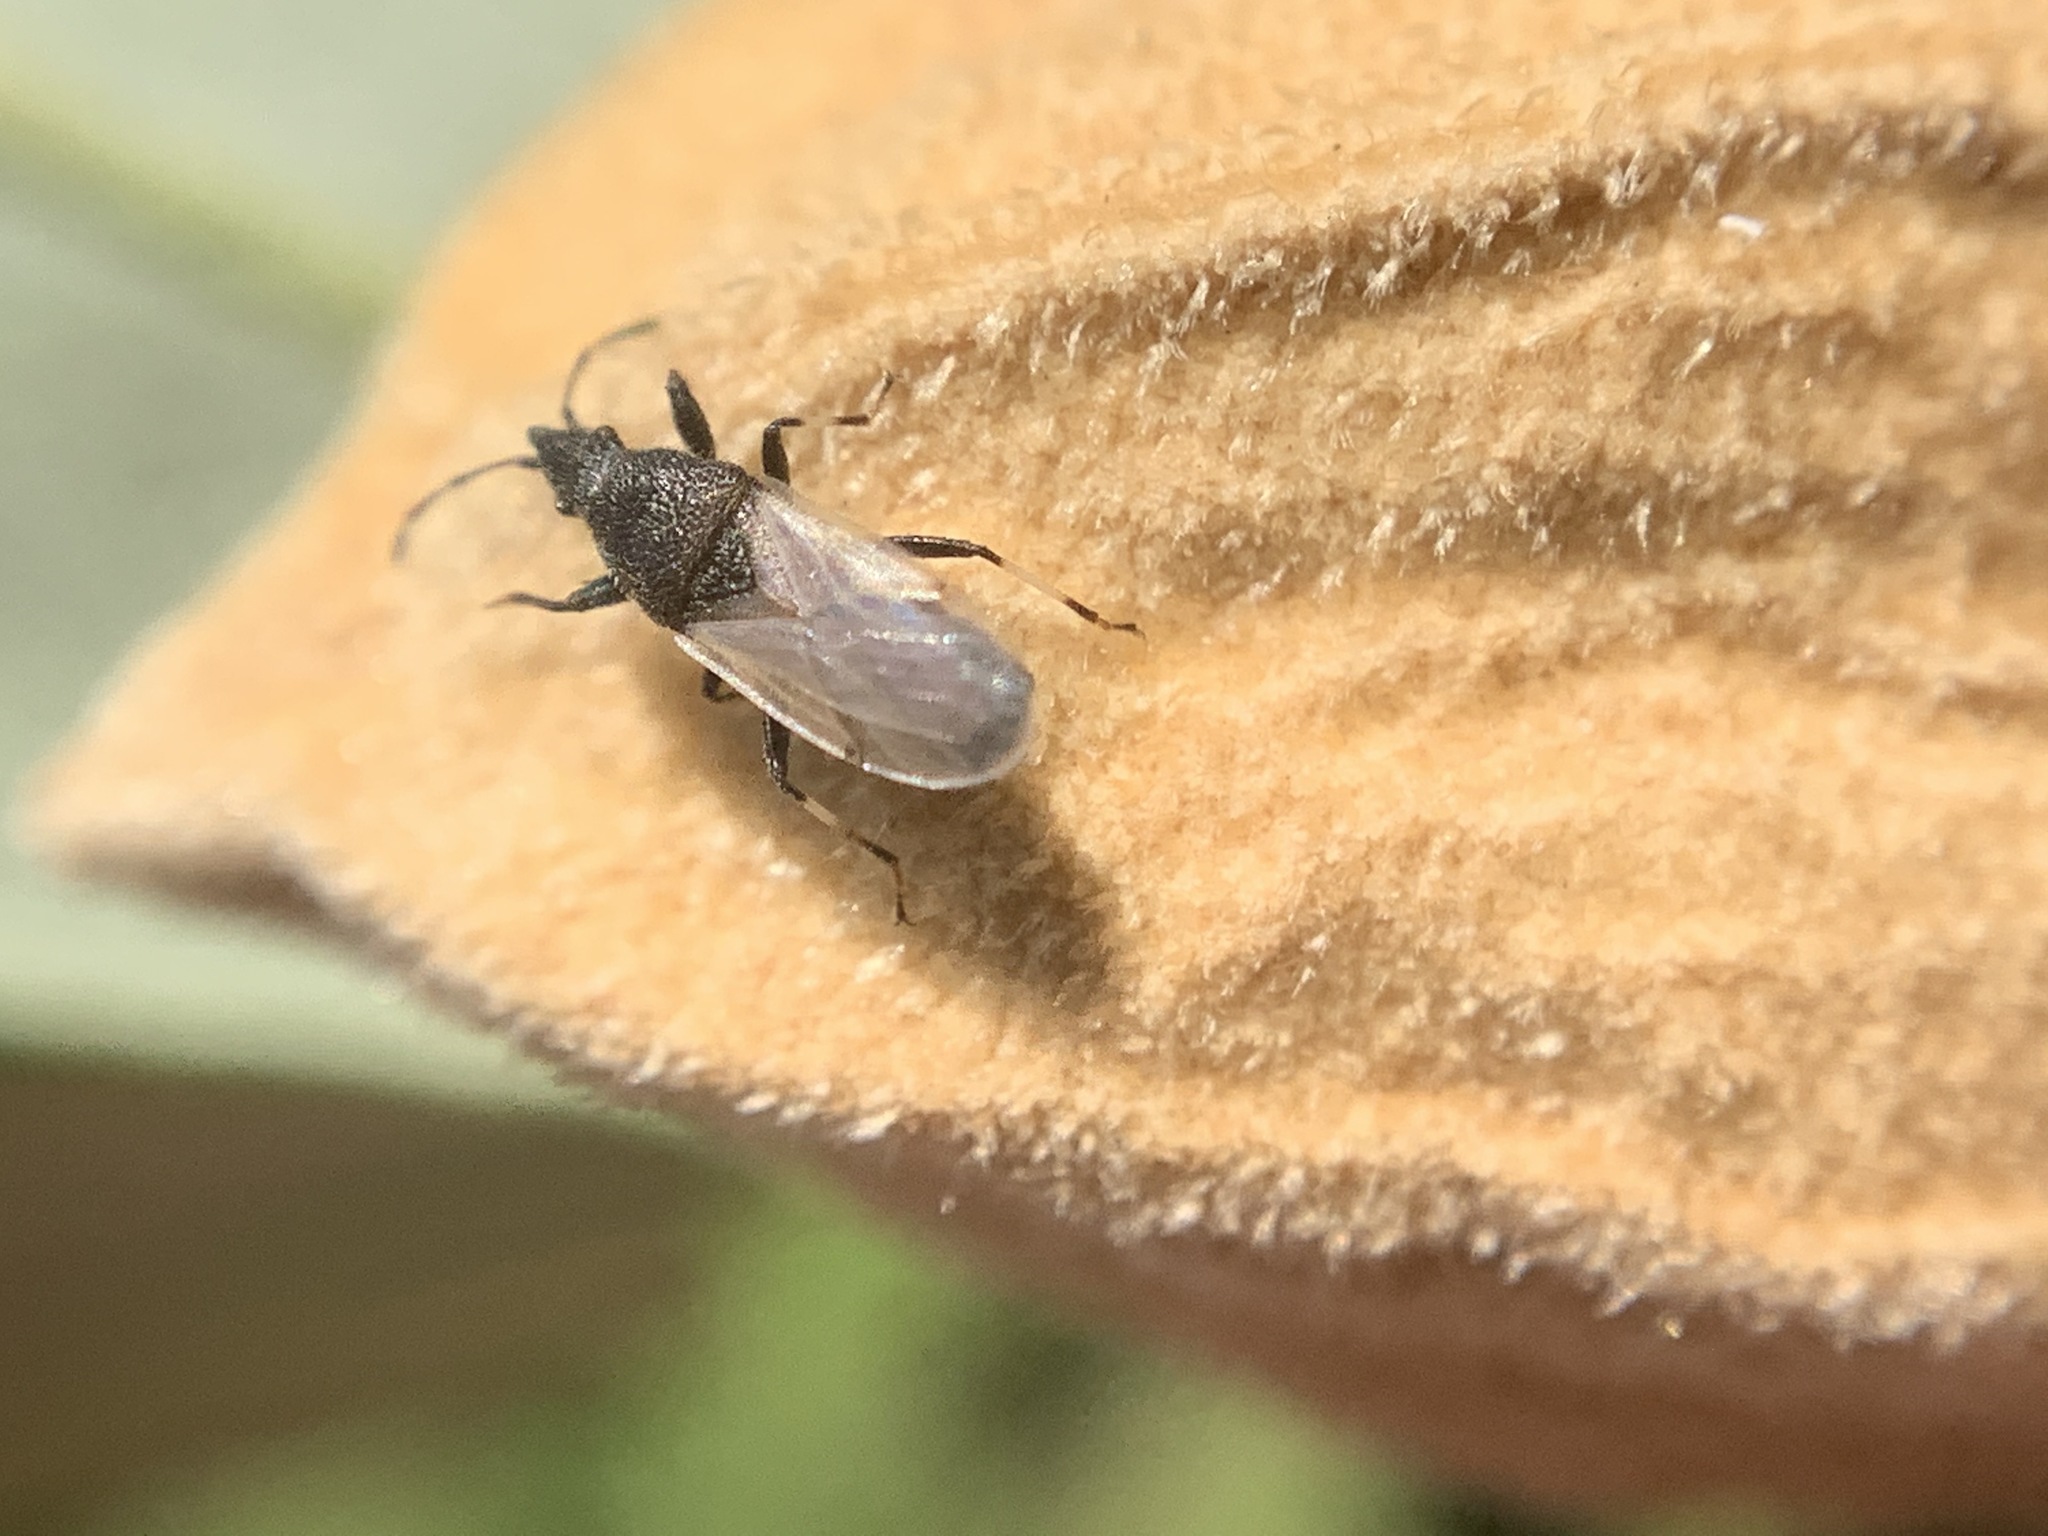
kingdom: Animalia
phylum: Arthropoda
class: Insecta
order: Hemiptera
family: Oxycarenidae
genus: Oxycarenus
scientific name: Oxycarenus hyalinipennis
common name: Cotton seed bug
